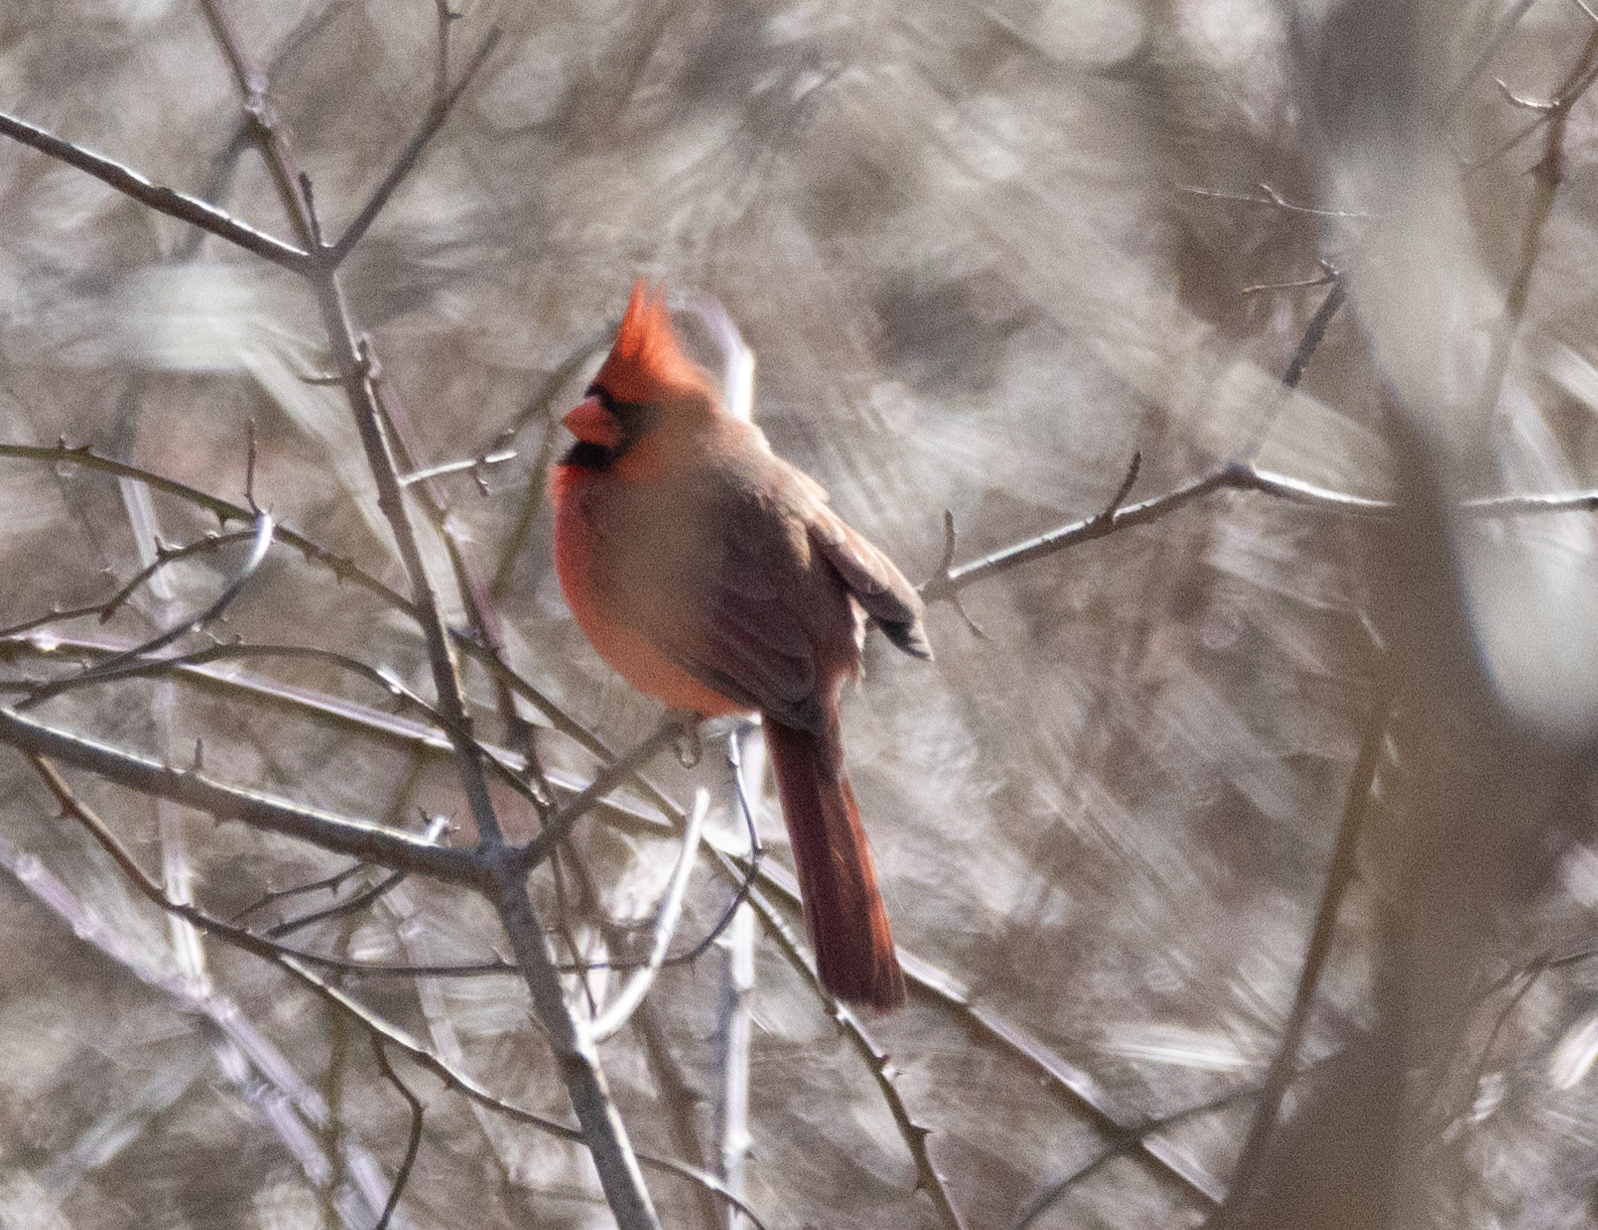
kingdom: Animalia
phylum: Chordata
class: Aves
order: Passeriformes
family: Cardinalidae
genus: Cardinalis
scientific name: Cardinalis cardinalis
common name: Northern cardinal
